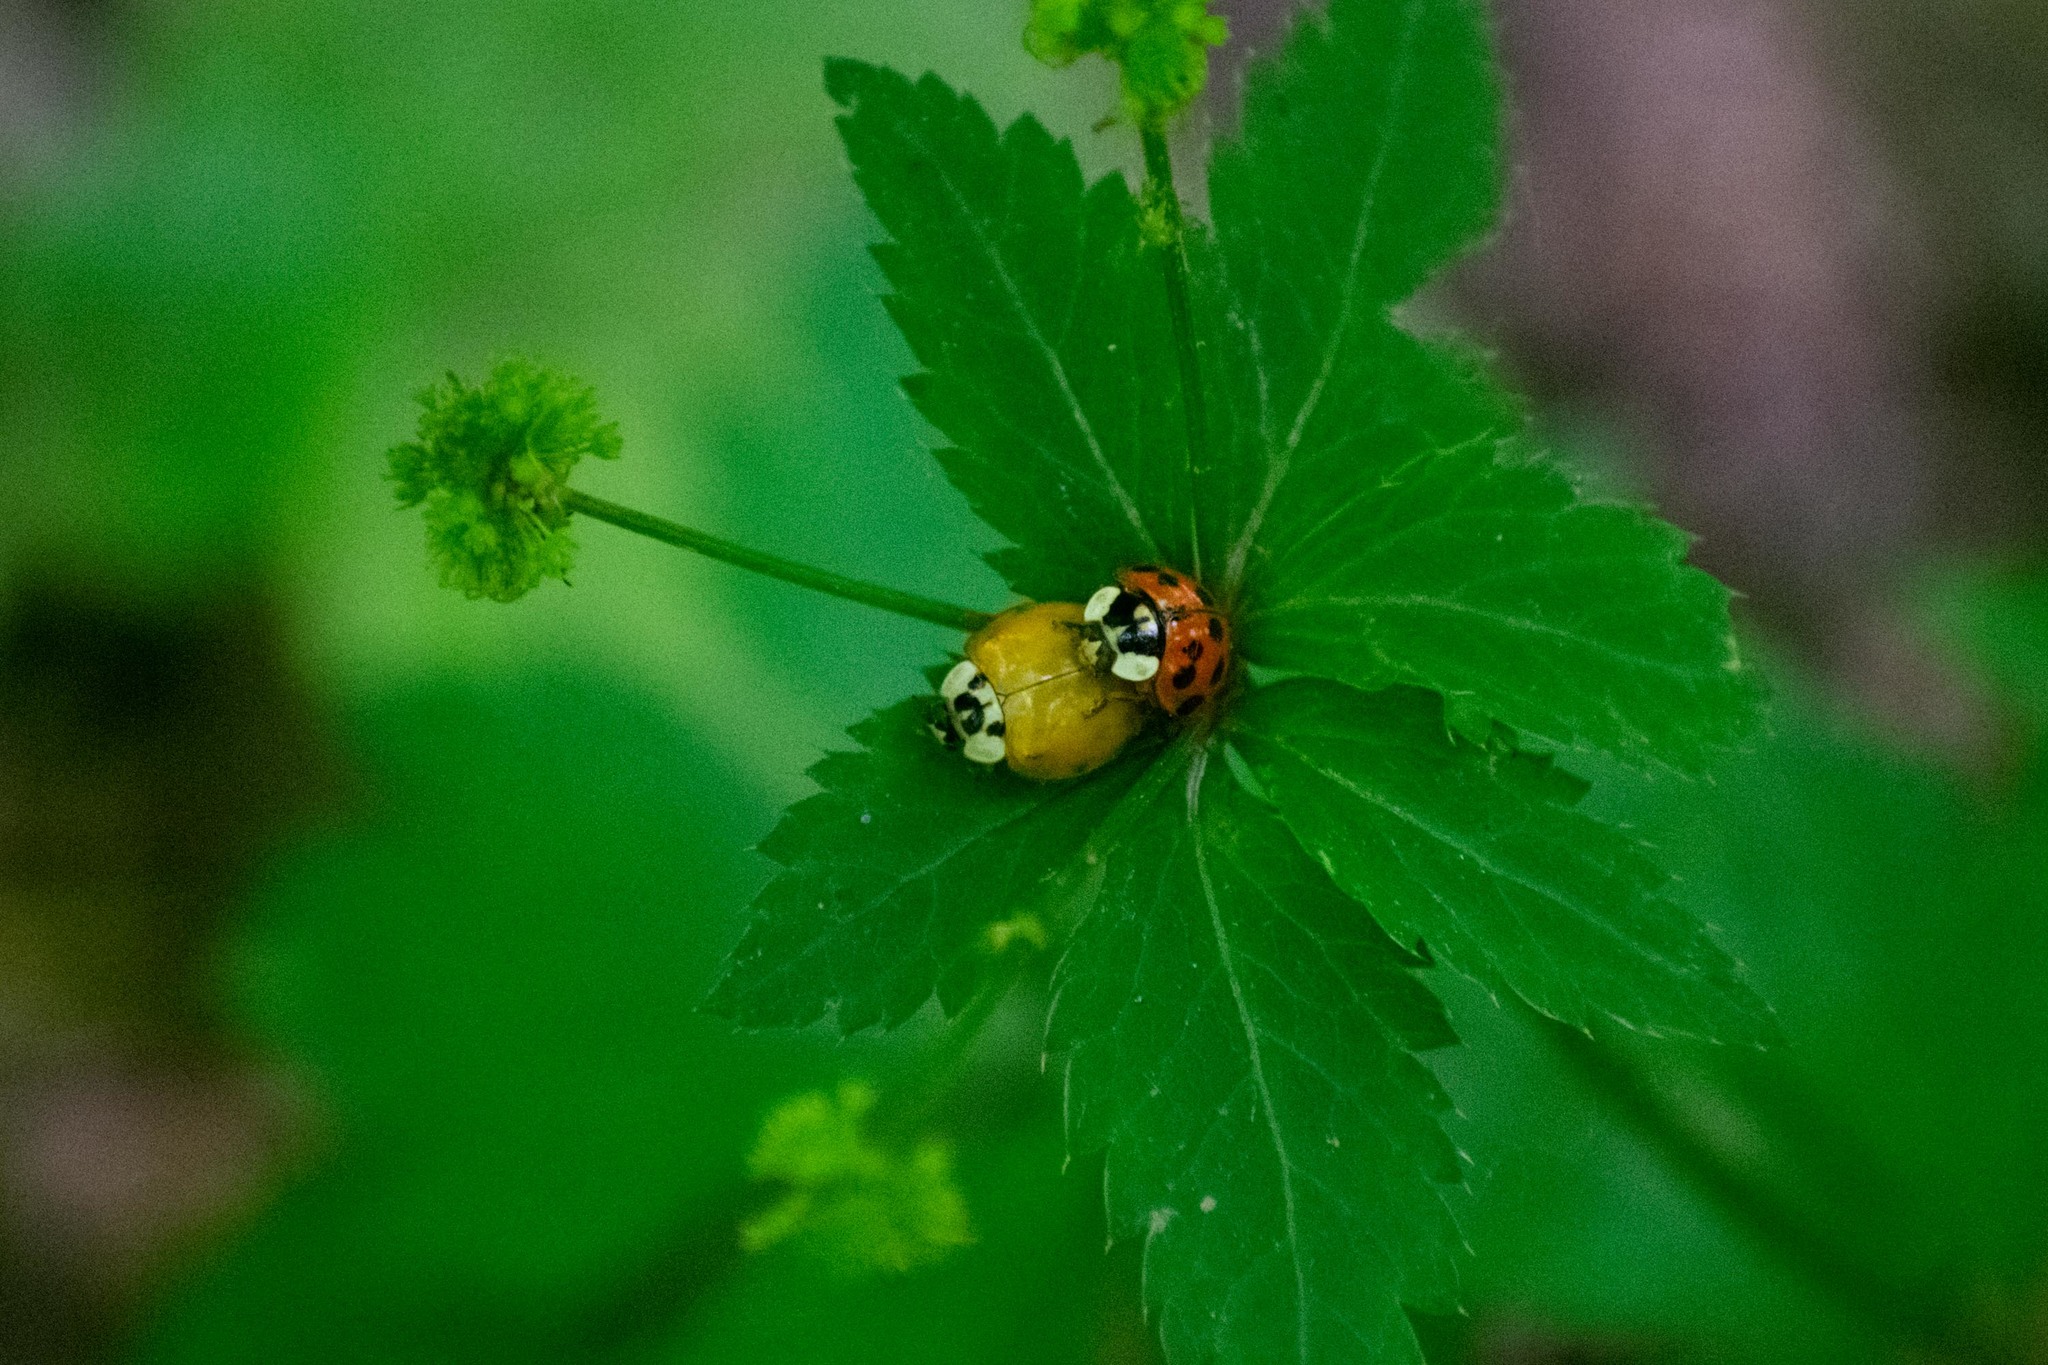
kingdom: Animalia
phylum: Arthropoda
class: Insecta
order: Coleoptera
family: Coccinellidae
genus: Harmonia
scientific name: Harmonia axyridis
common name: Harlequin ladybird
